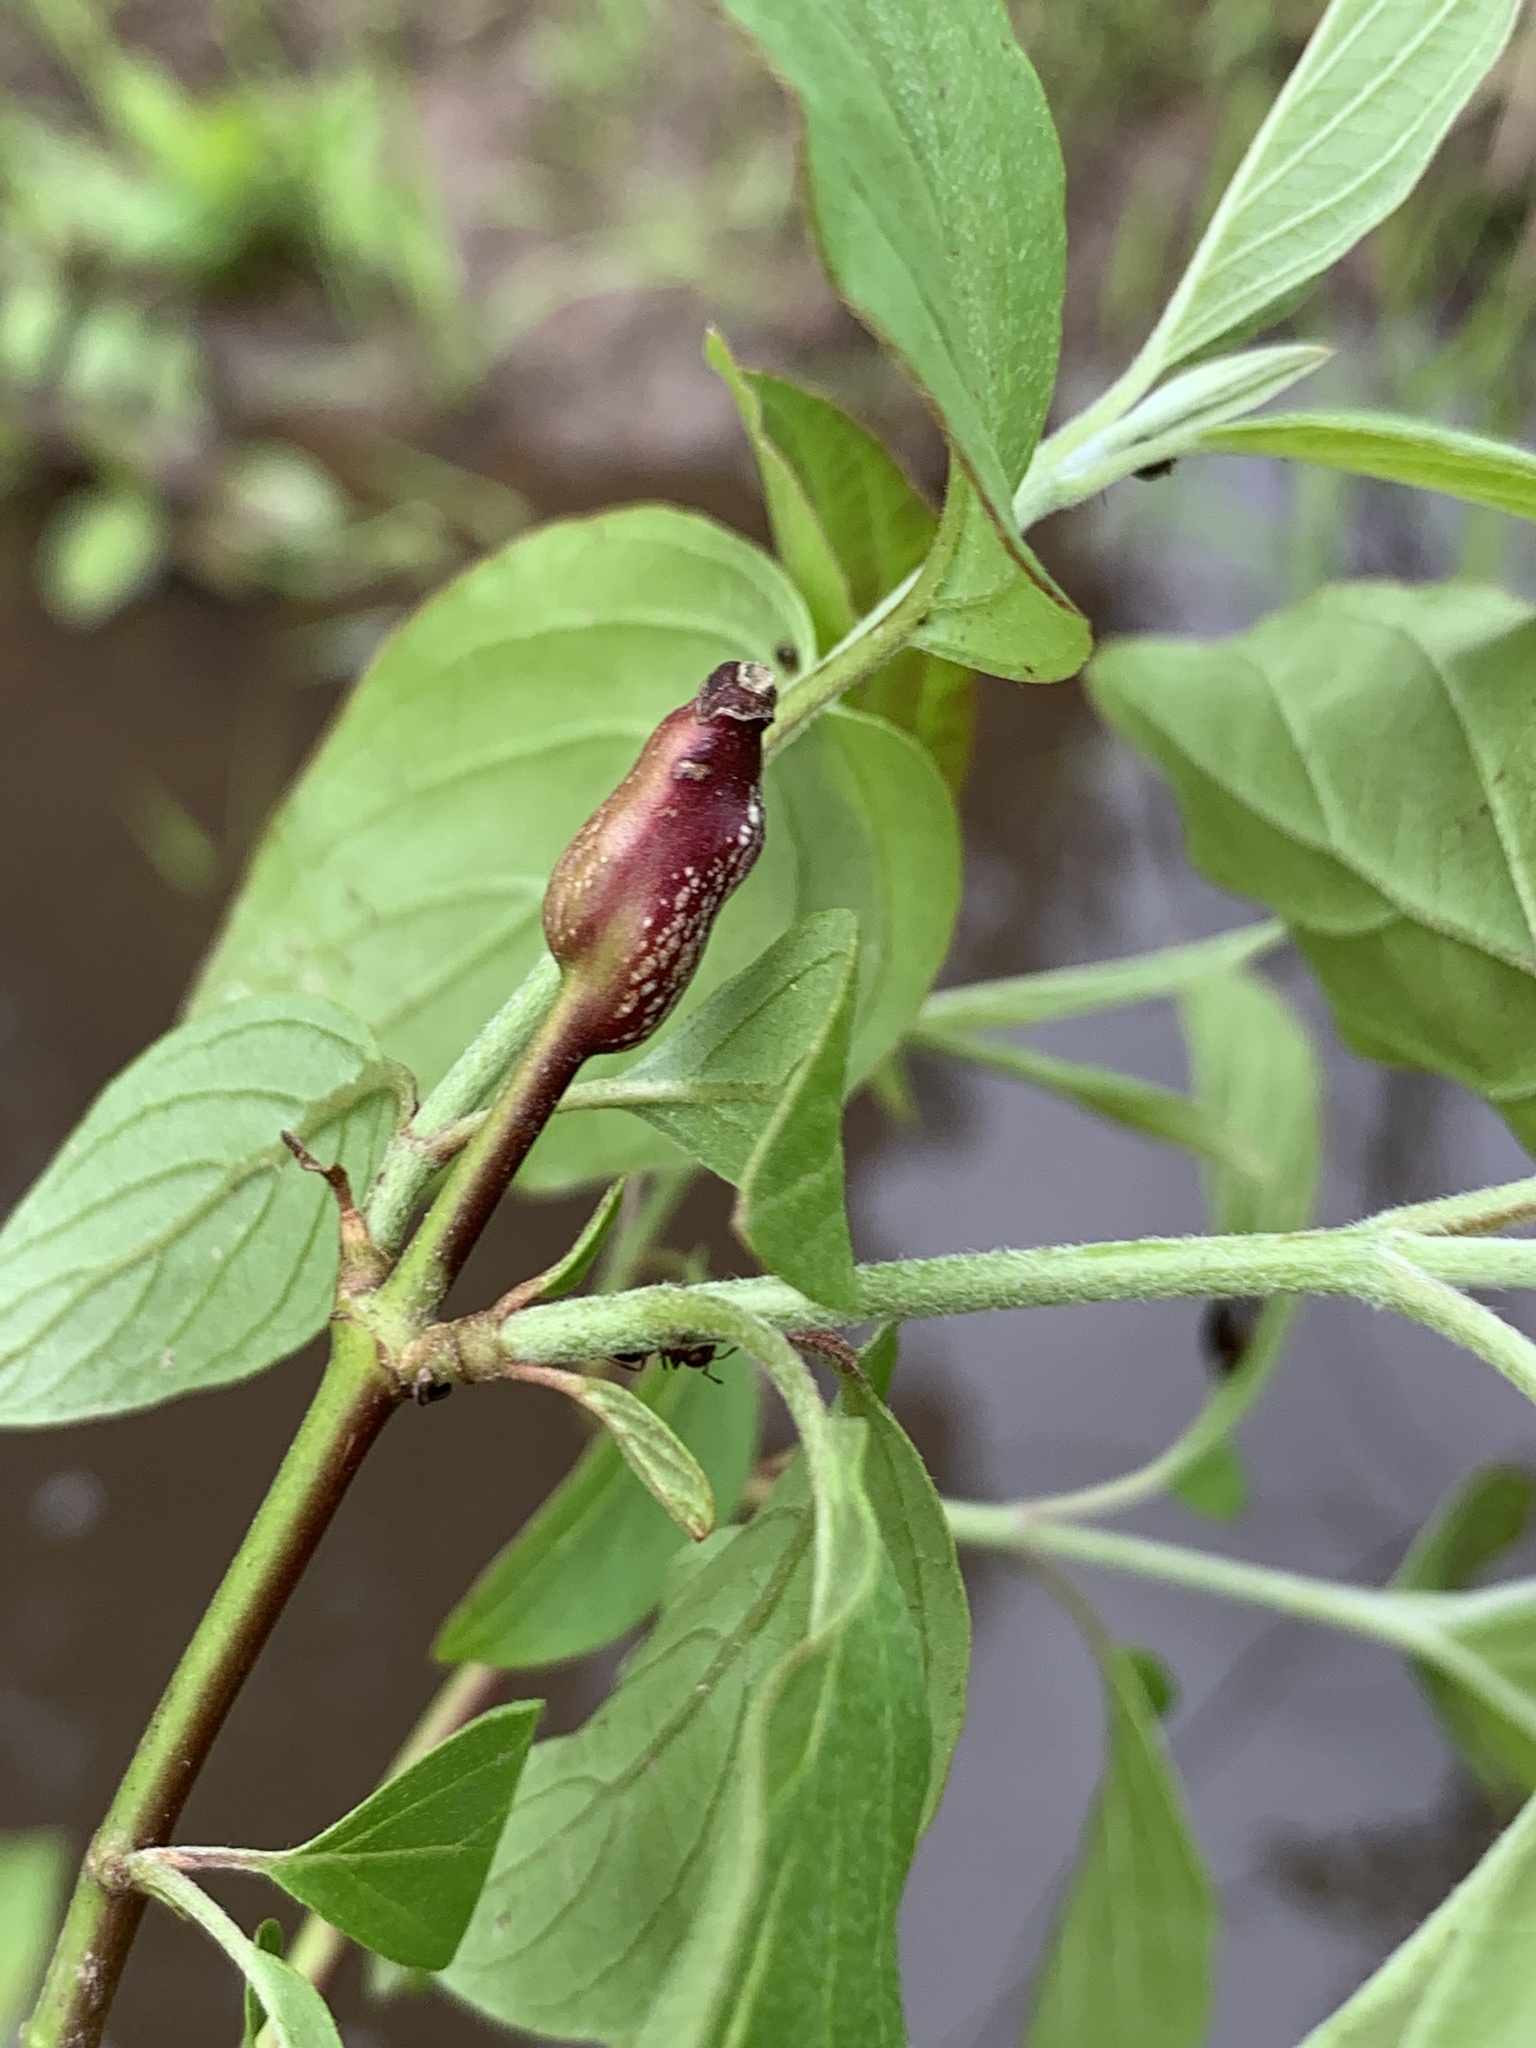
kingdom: Animalia
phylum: Arthropoda
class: Insecta
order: Diptera
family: Cecidomyiidae
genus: Neolasioptera
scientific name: Neolasioptera cornicola
